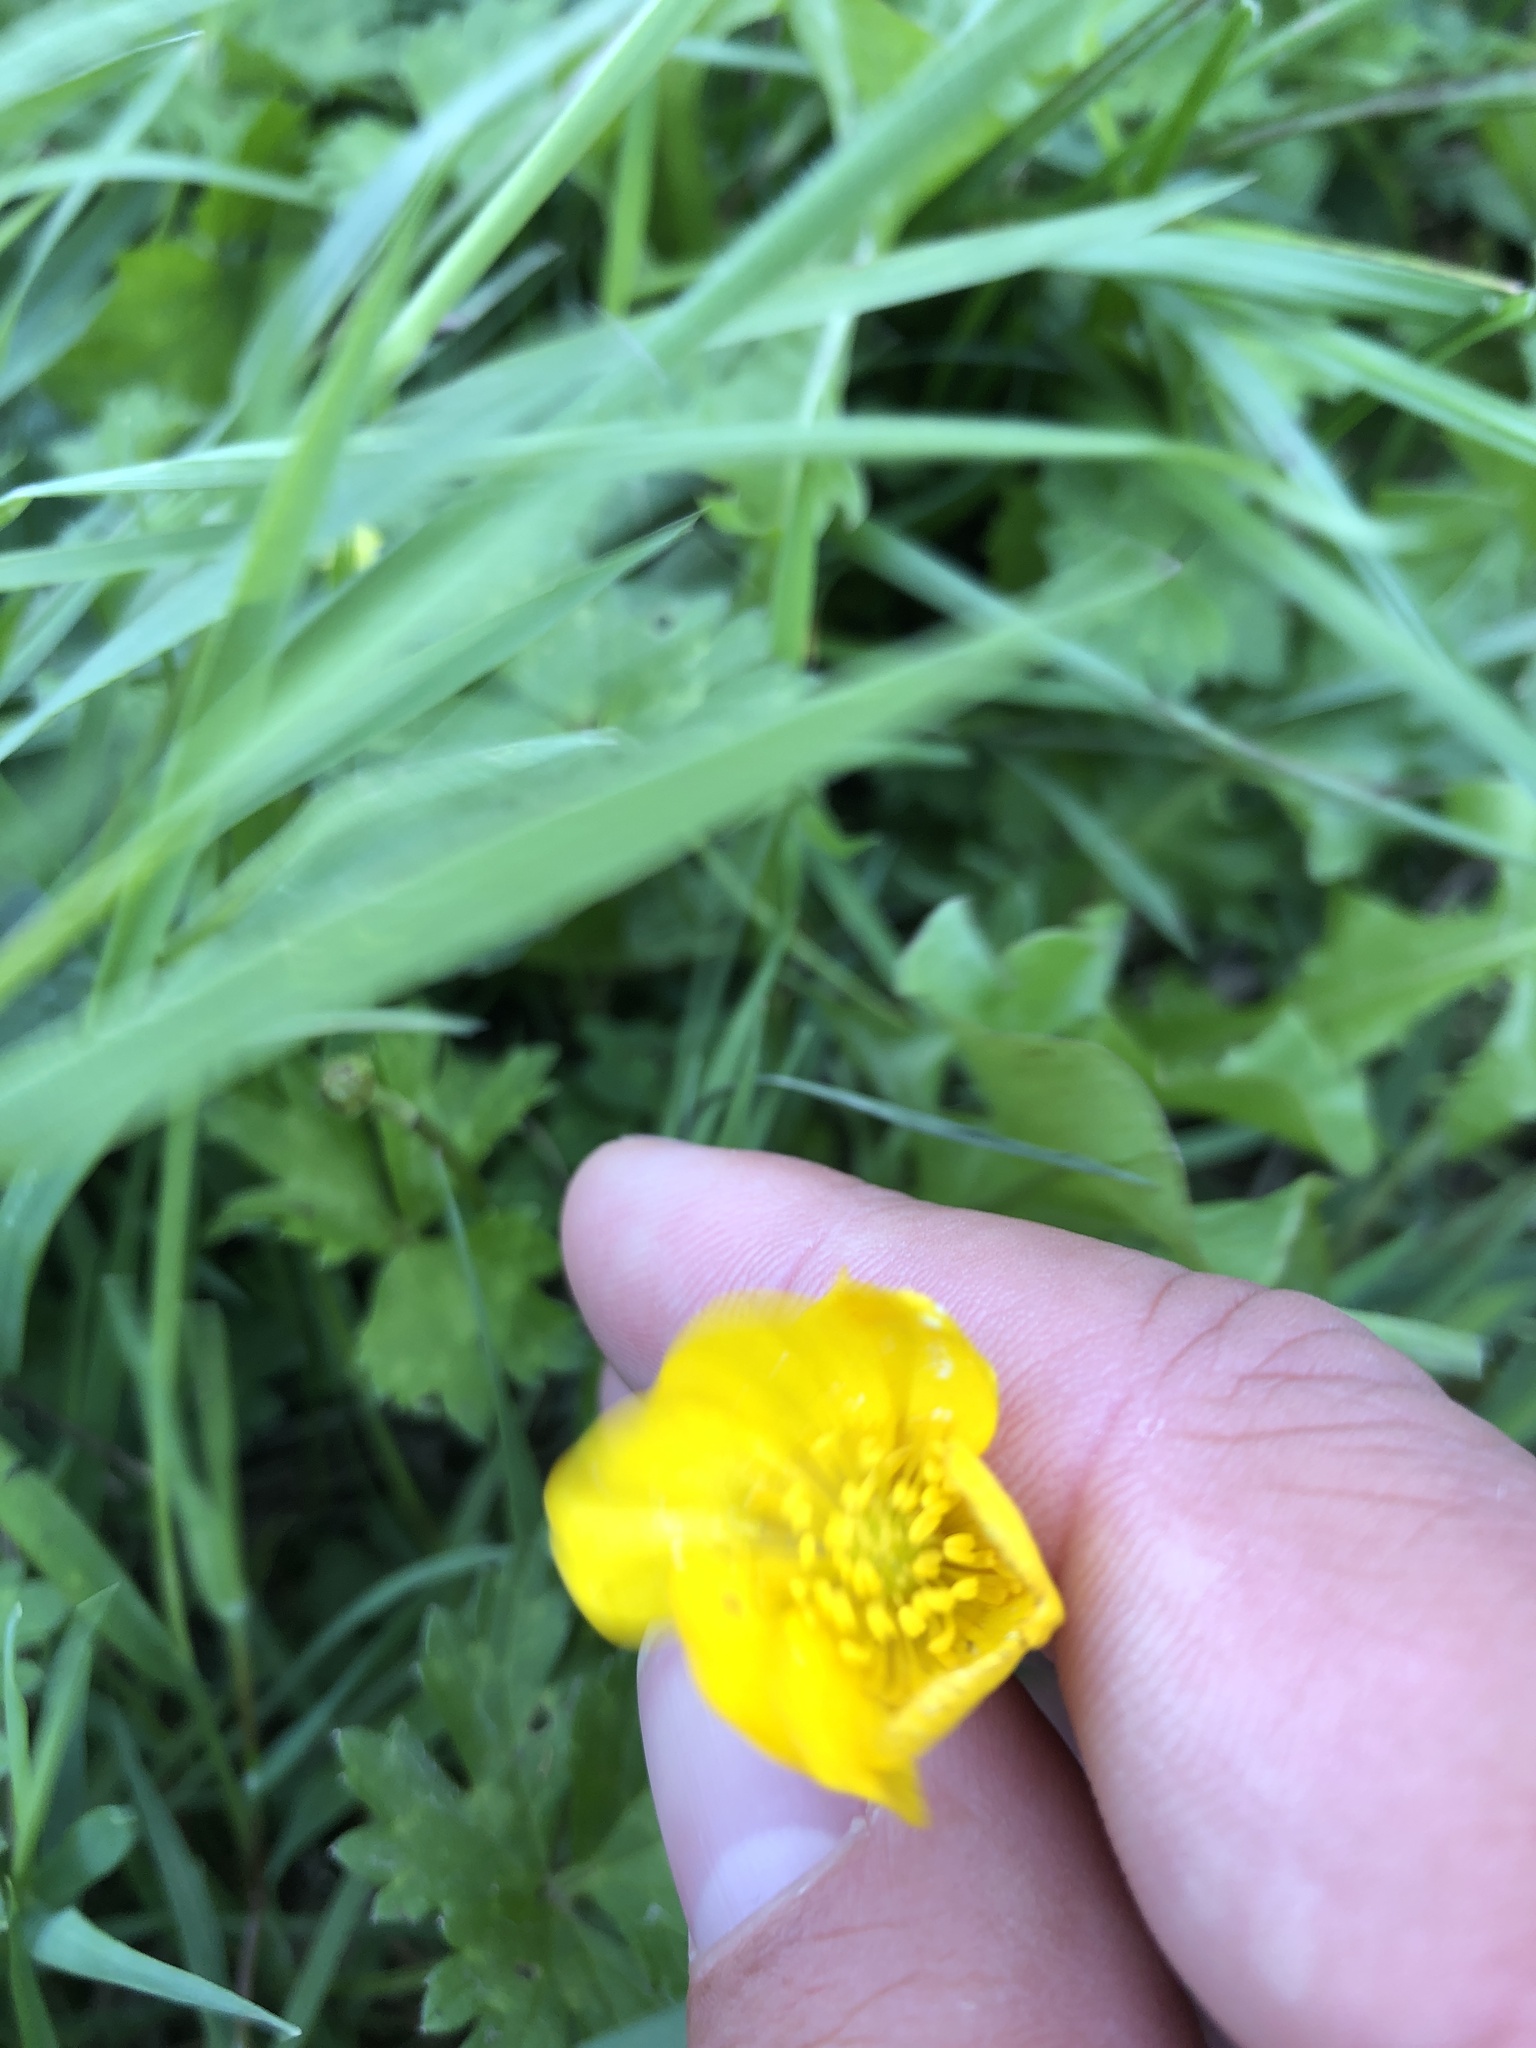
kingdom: Plantae
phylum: Tracheophyta
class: Magnoliopsida
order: Ranunculales
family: Ranunculaceae
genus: Ranunculus
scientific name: Ranunculus acris
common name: Meadow buttercup
